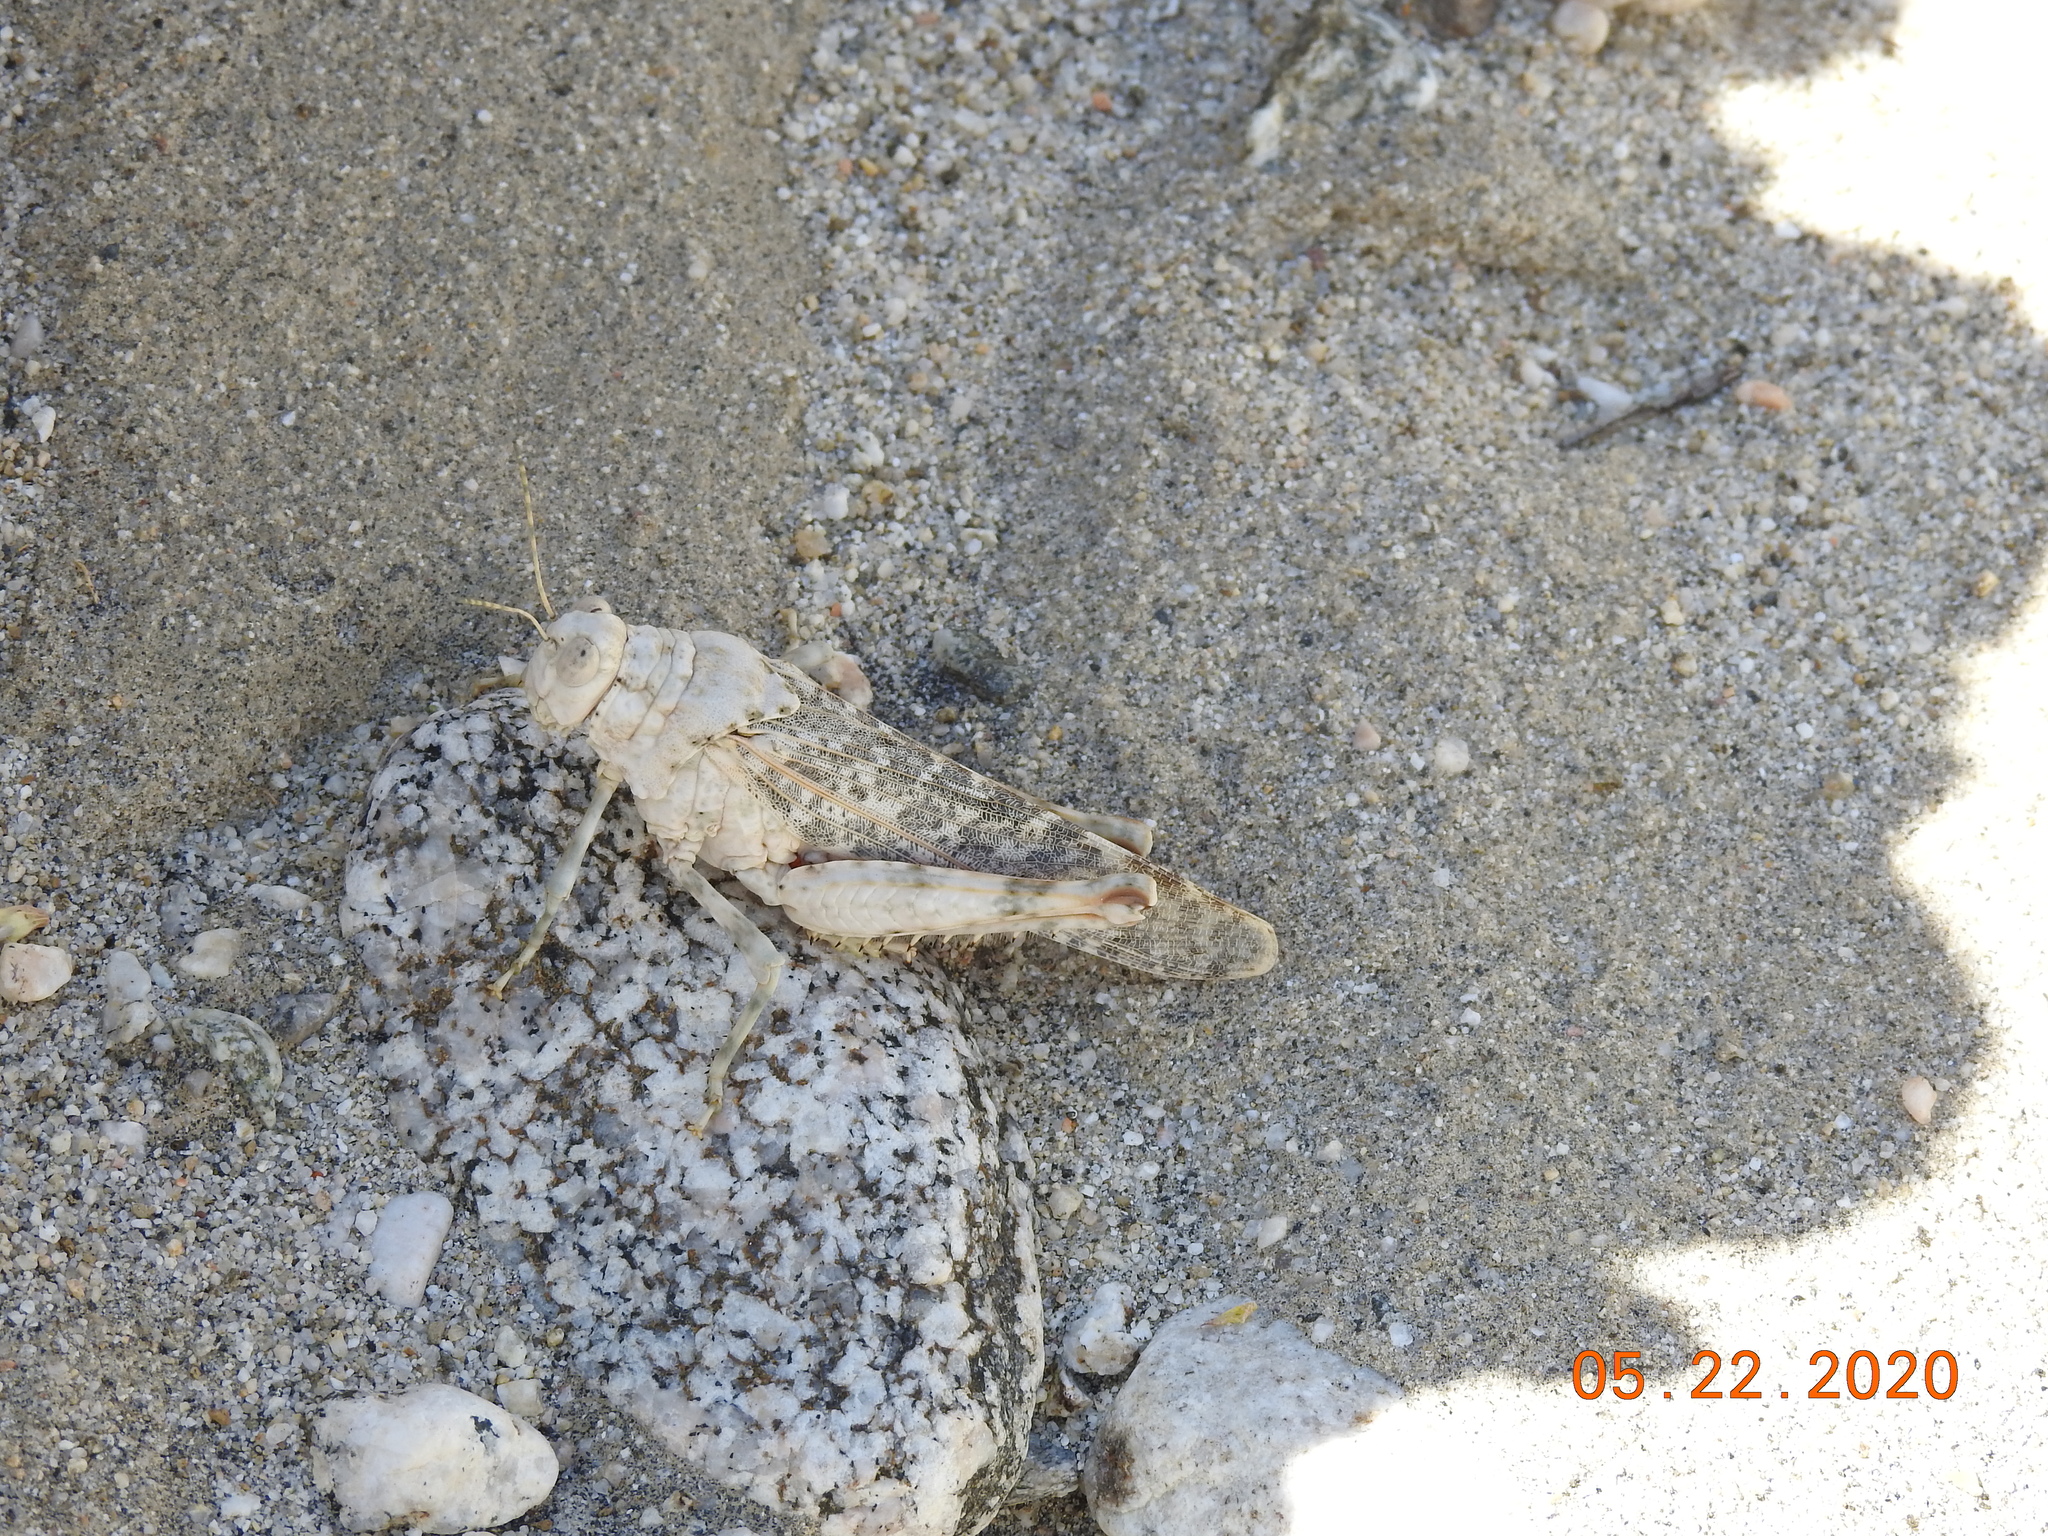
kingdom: Animalia
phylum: Arthropoda
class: Insecta
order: Orthoptera
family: Romaleidae
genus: Tytthotyle
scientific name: Tytthotyle maculata
